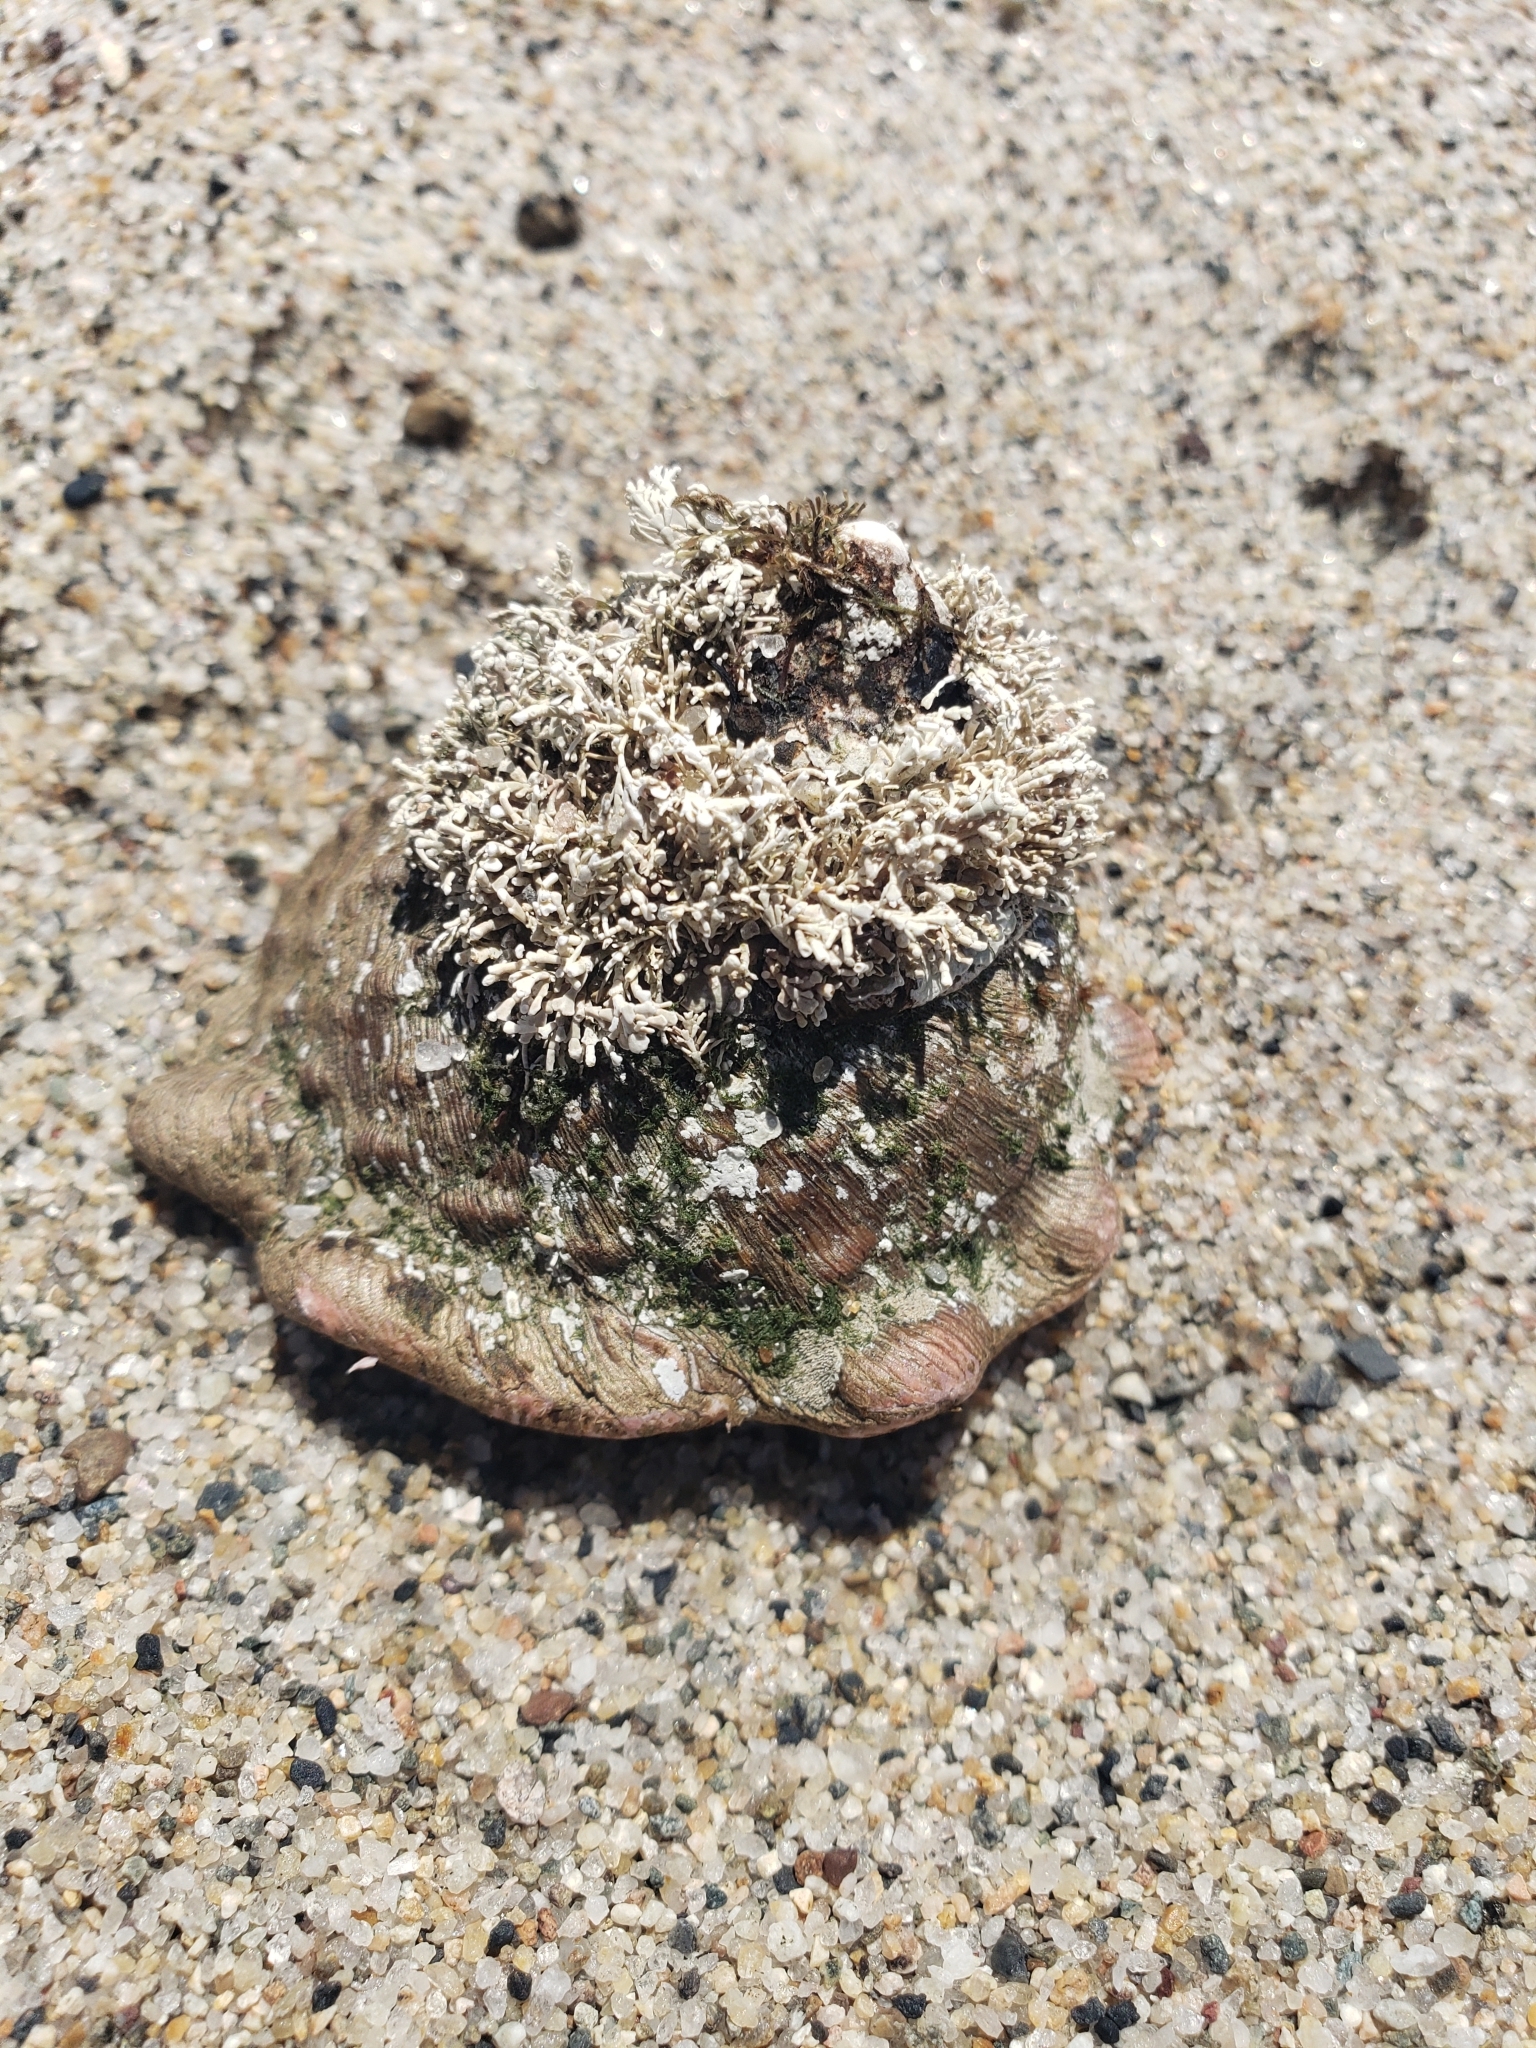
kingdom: Animalia
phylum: Mollusca
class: Gastropoda
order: Trochida
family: Turbinidae
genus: Megastraea
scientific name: Megastraea undosa
